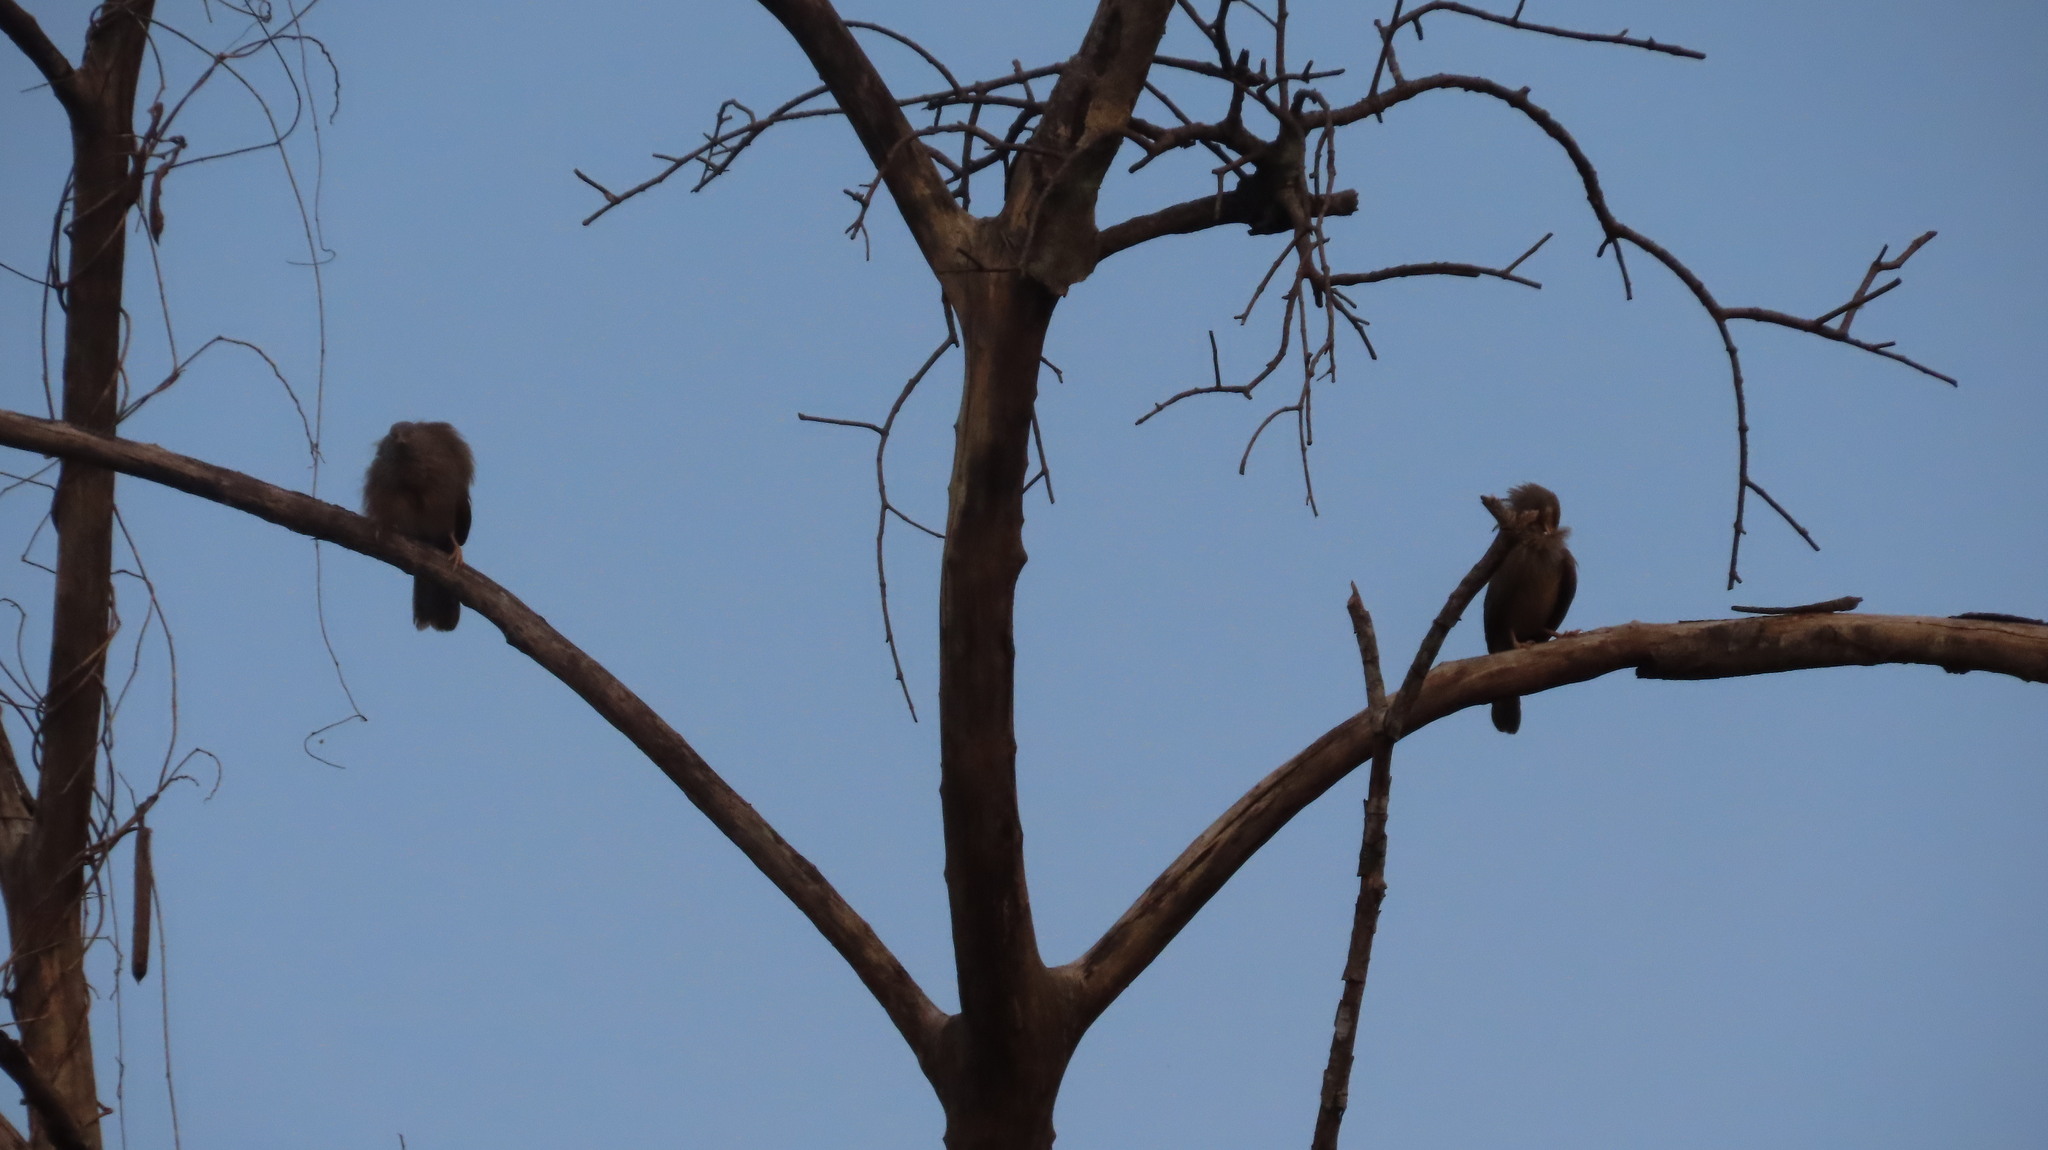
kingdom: Animalia
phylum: Chordata
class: Aves
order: Passeriformes
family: Leiothrichidae
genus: Turdoides
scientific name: Turdoides striata
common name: Jungle babbler
